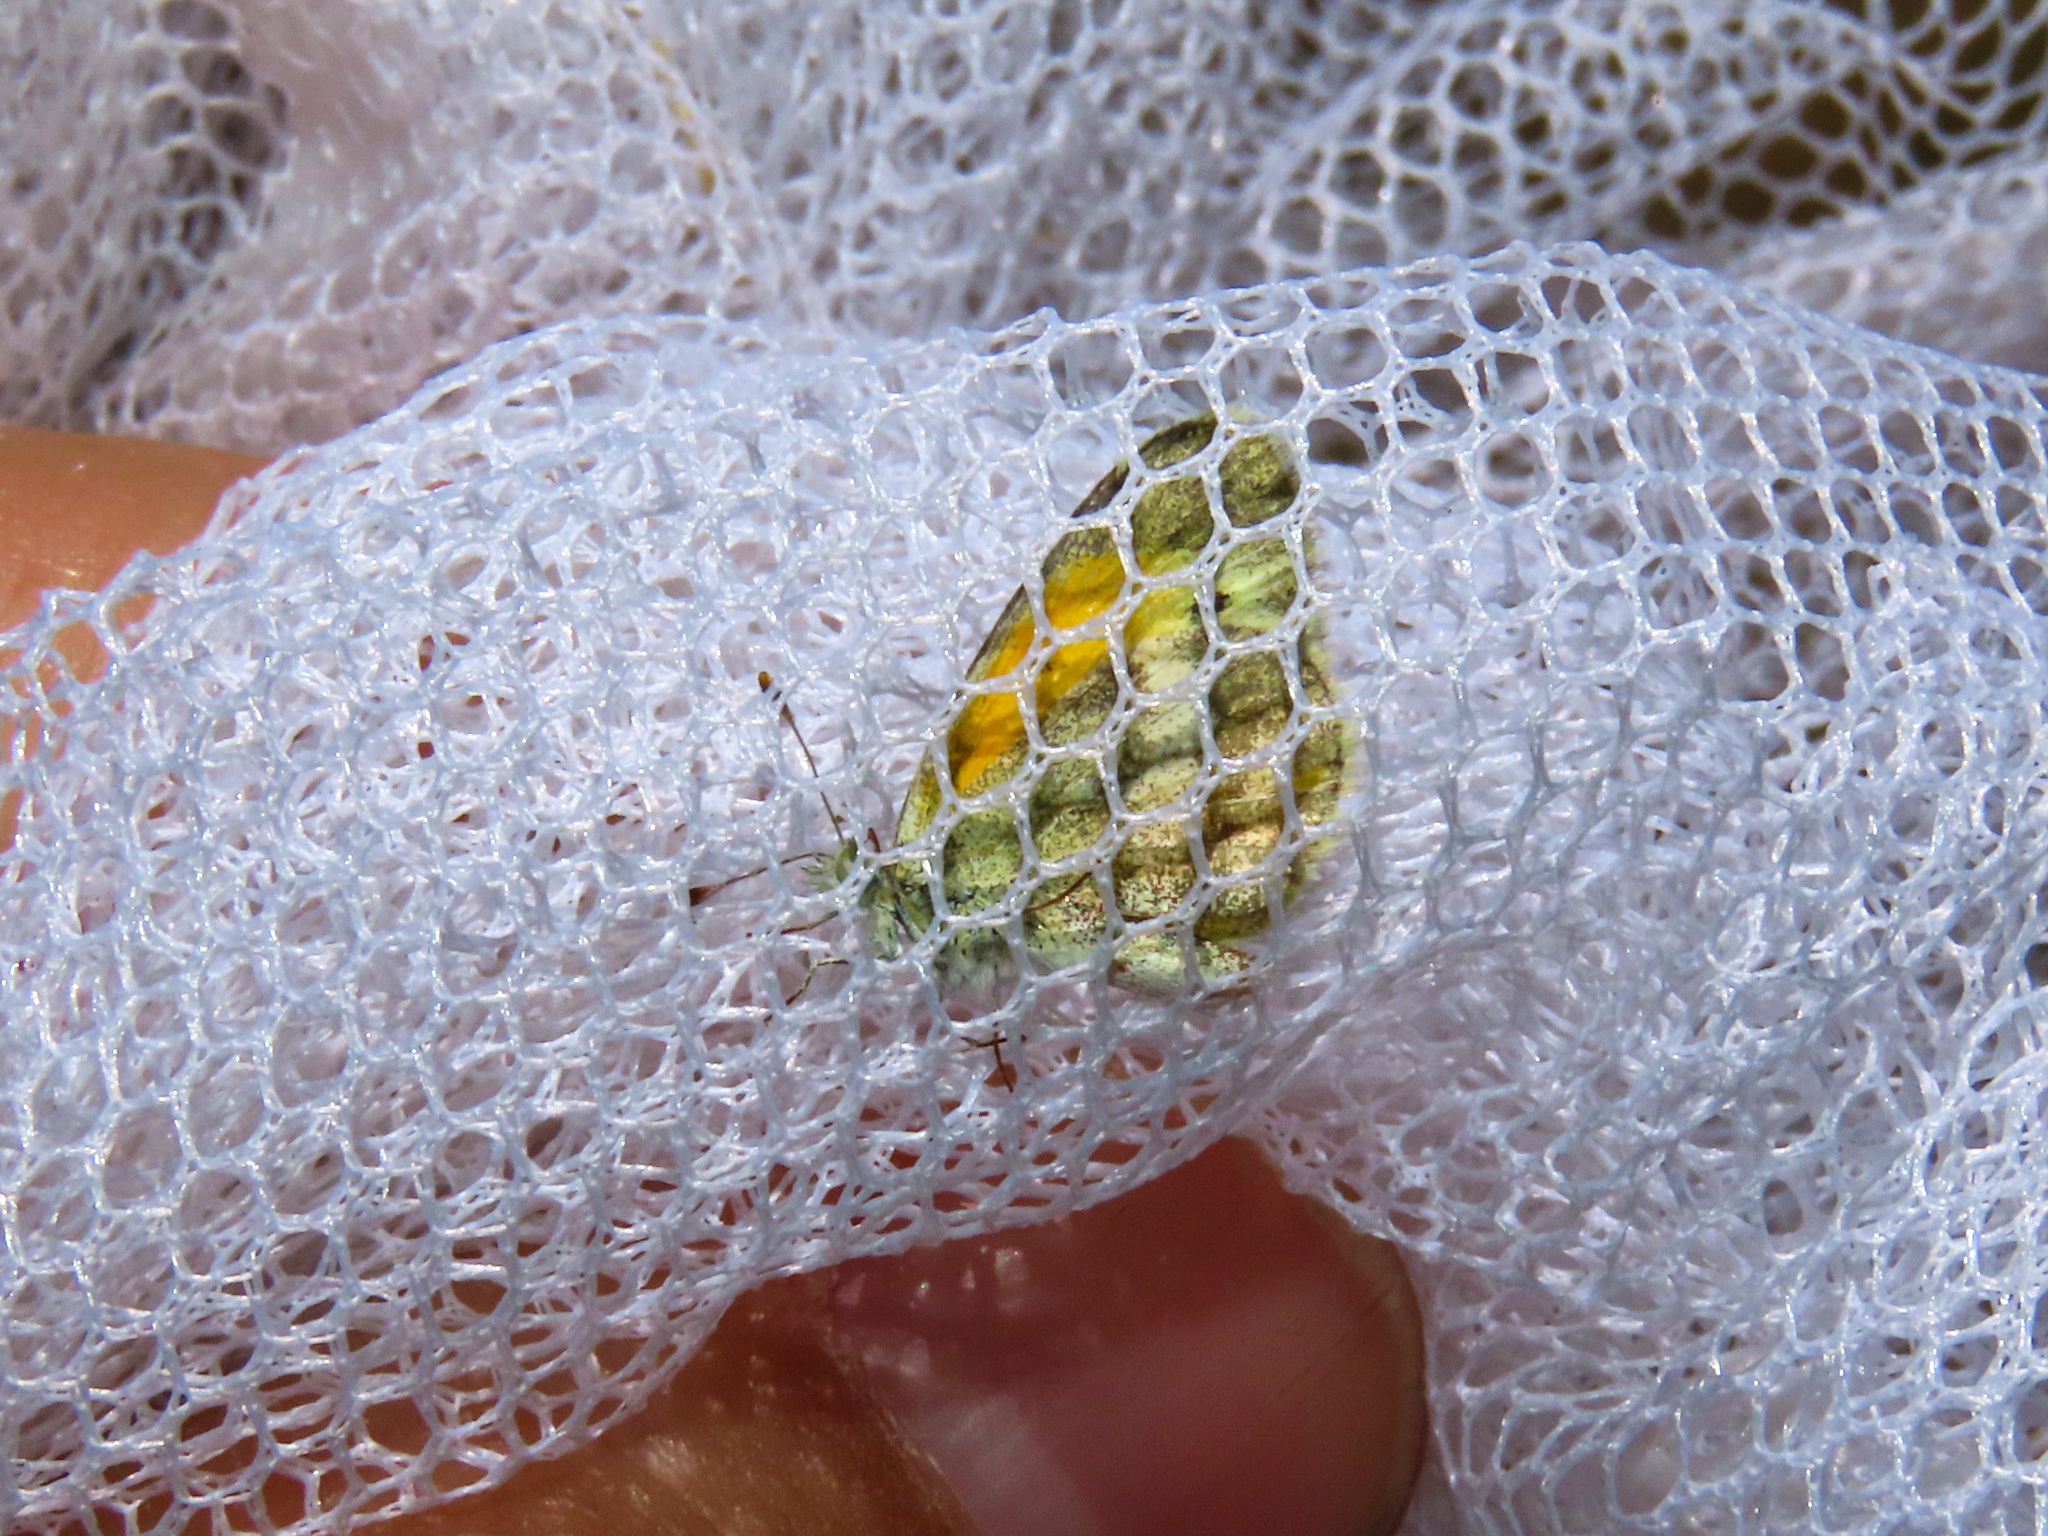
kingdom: Animalia
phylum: Arthropoda
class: Insecta
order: Lepidoptera
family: Pieridae
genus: Nathalis
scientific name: Nathalis iole
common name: Dainty sulphur
